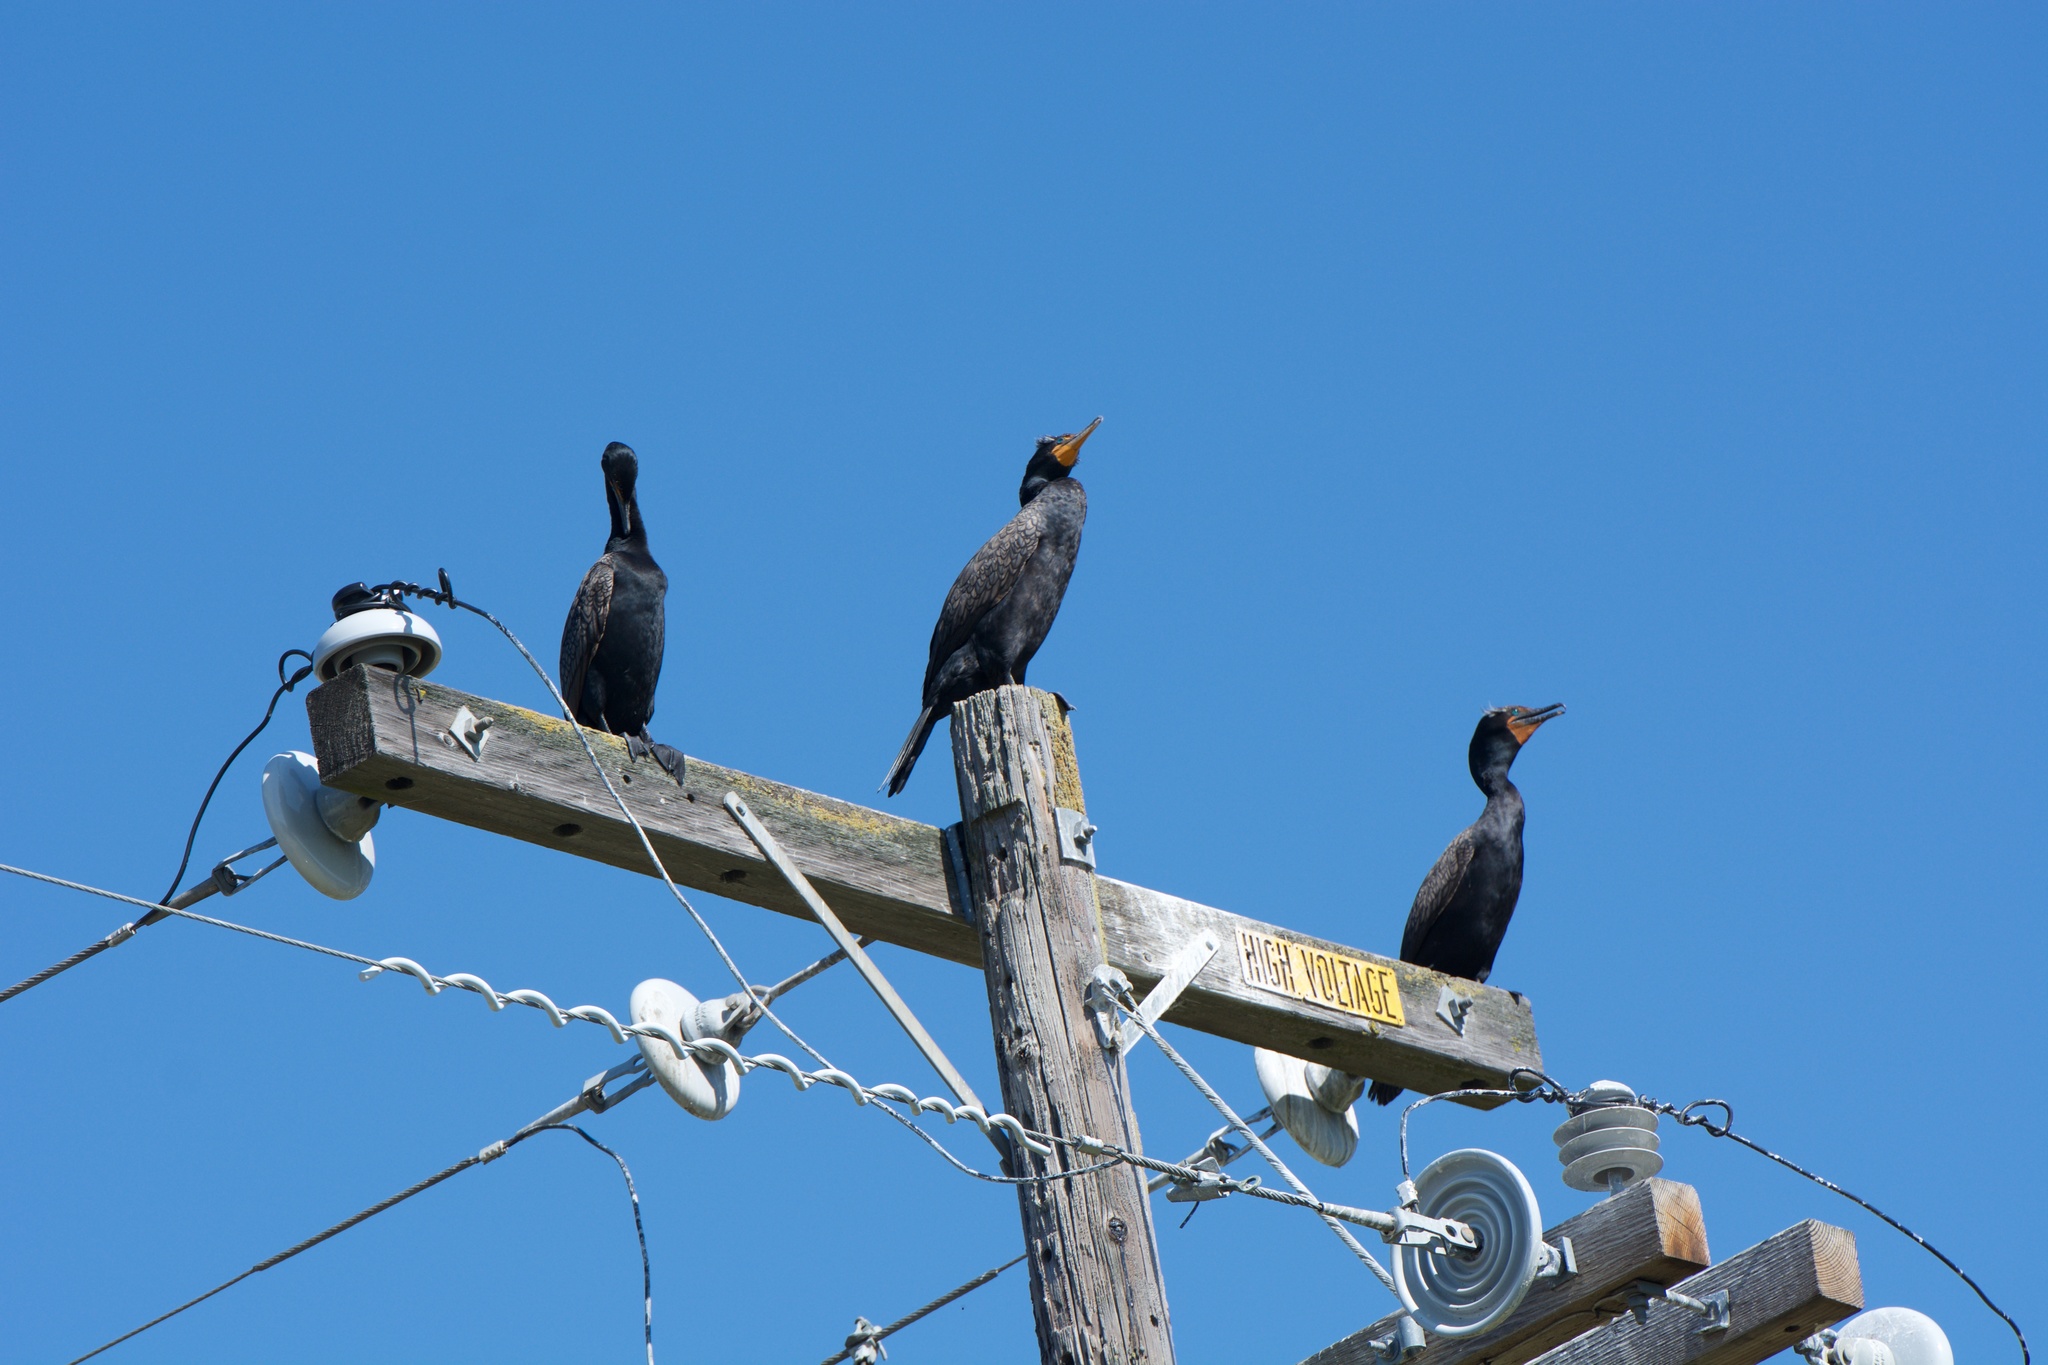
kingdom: Animalia
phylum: Chordata
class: Aves
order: Suliformes
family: Phalacrocoracidae
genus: Phalacrocorax
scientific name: Phalacrocorax auritus
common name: Double-crested cormorant
